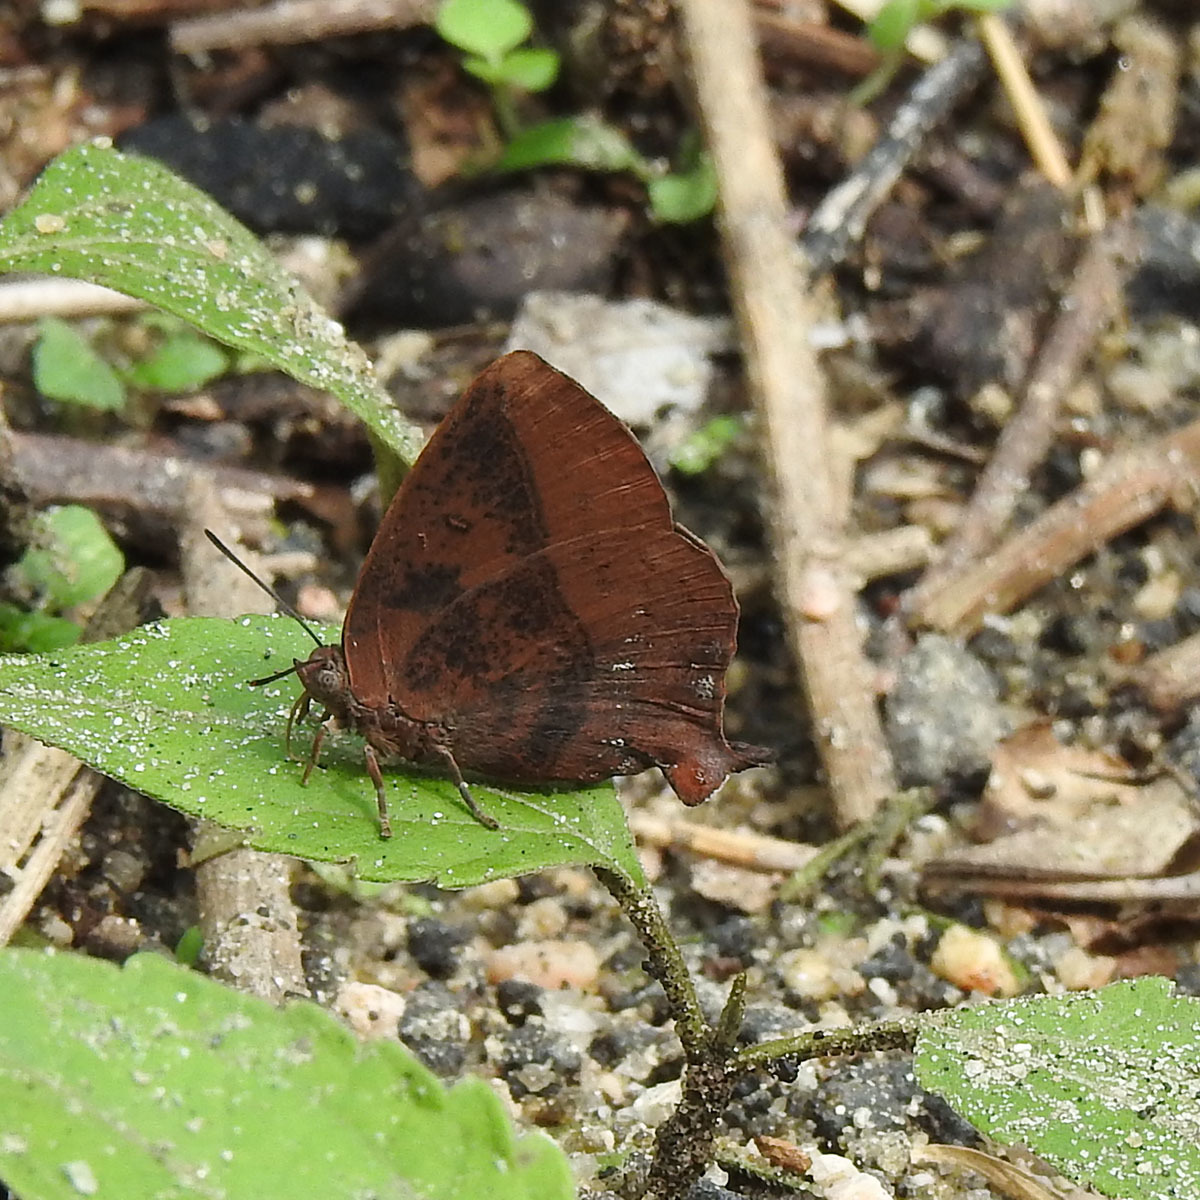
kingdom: Animalia
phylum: Arthropoda
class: Insecta
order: Lepidoptera
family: Lycaenidae
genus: Amblypodia
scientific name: Amblypodia anita
